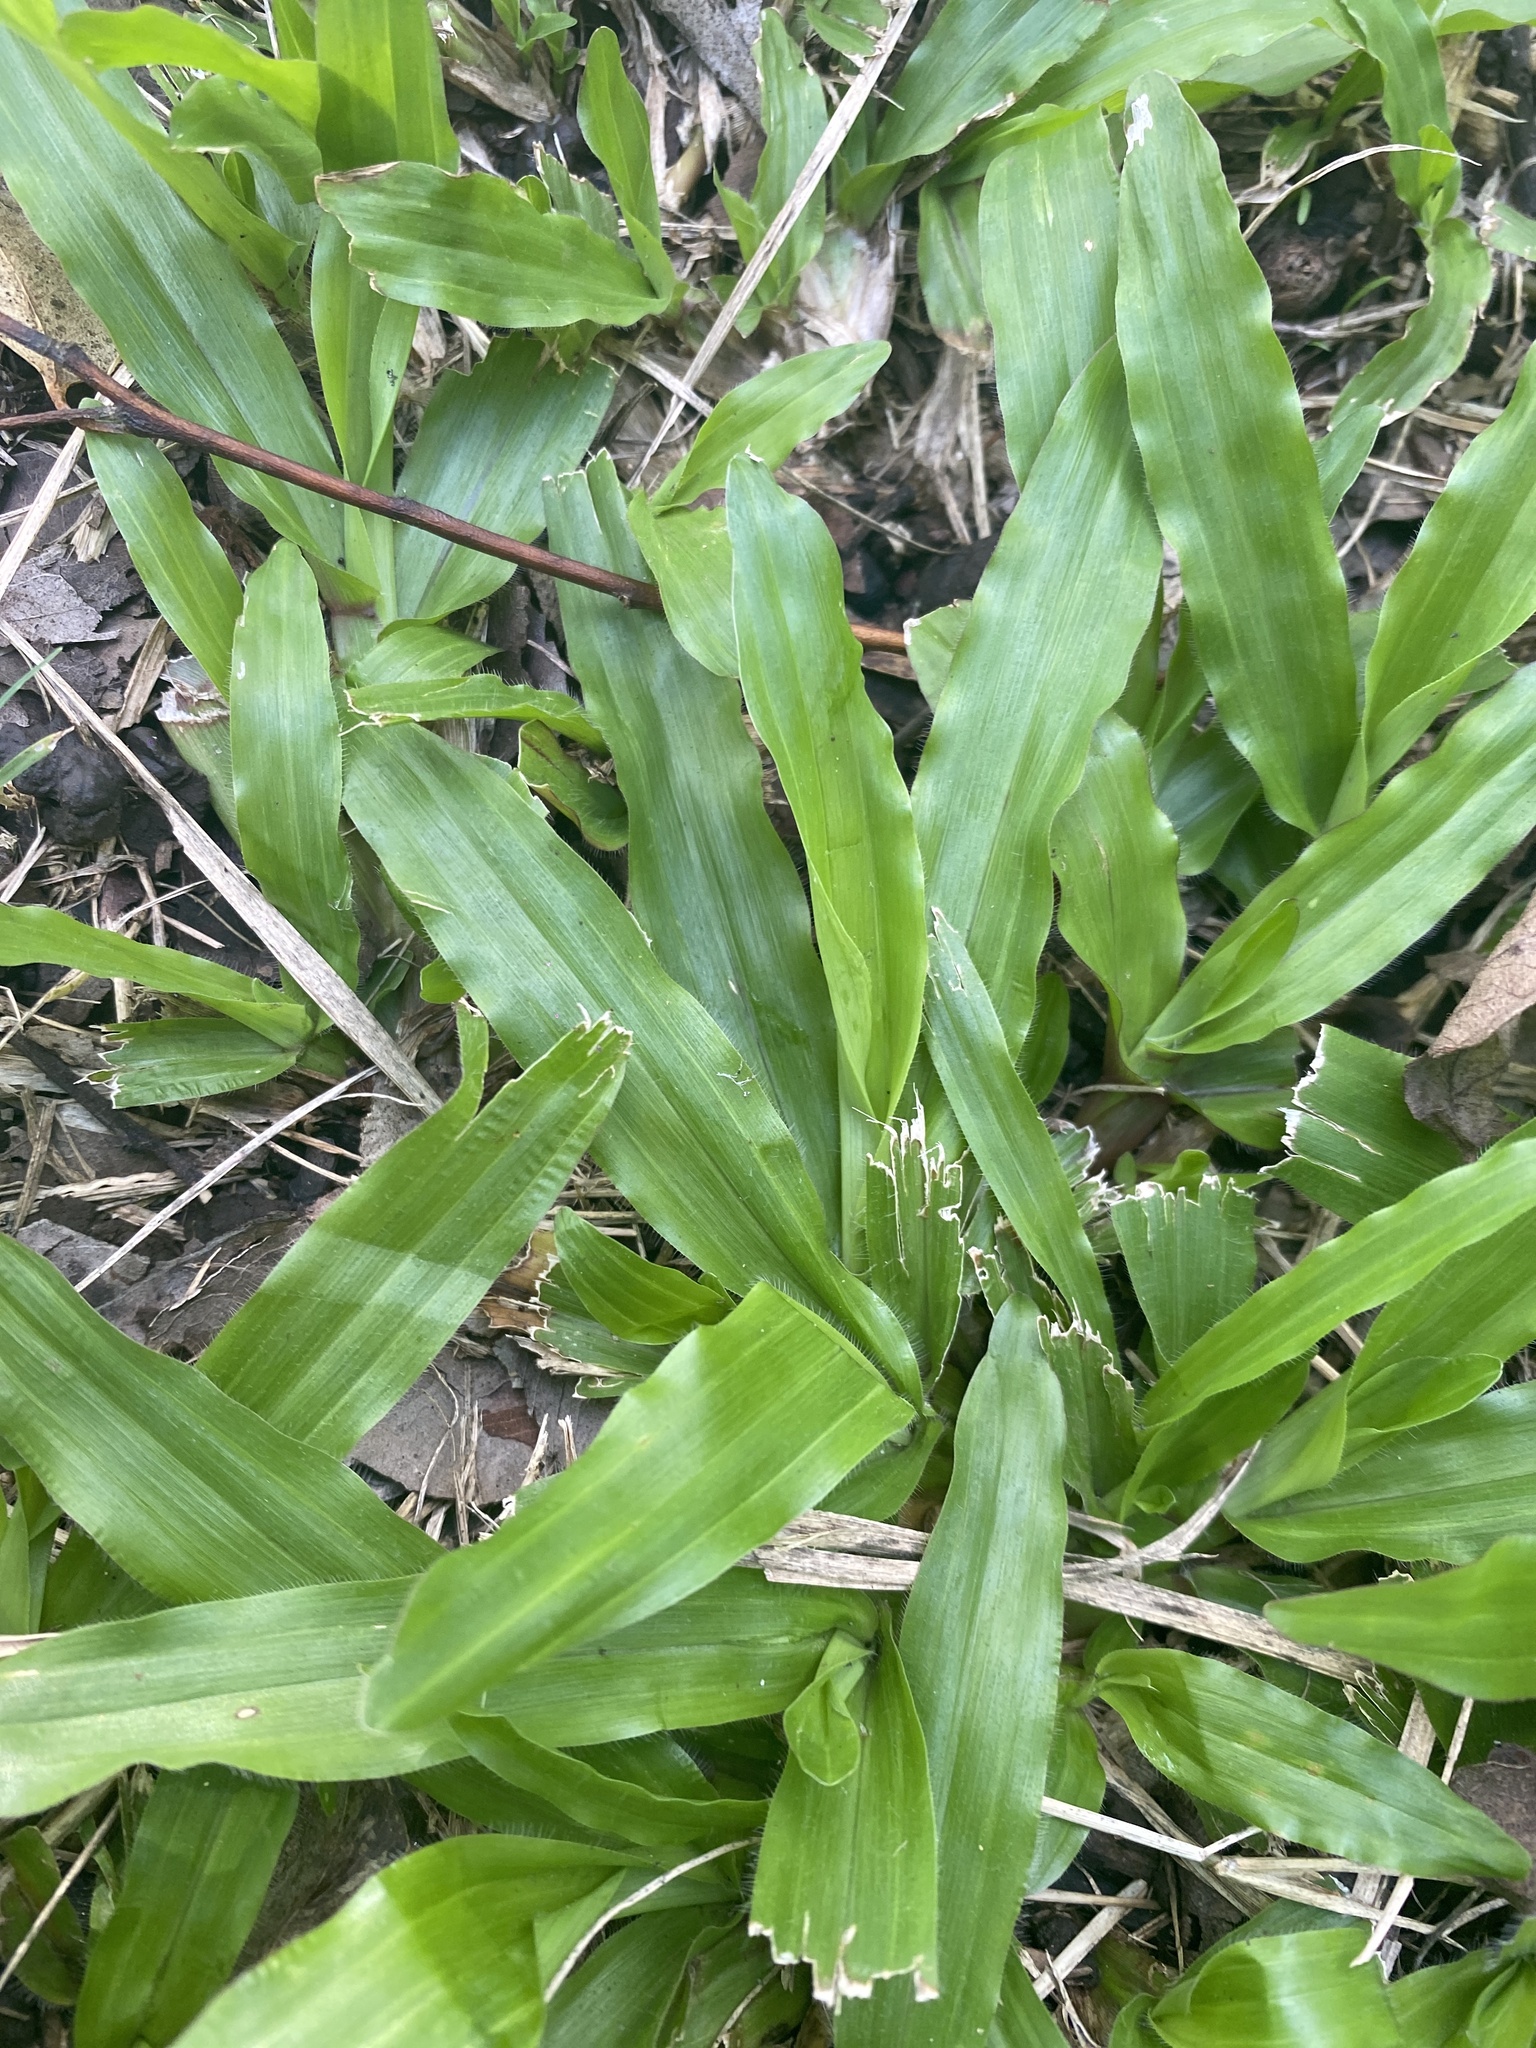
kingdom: Plantae
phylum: Tracheophyta
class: Liliopsida
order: Poales
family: Poaceae
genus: Axonopus
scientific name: Axonopus compressus
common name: American carpet grass
